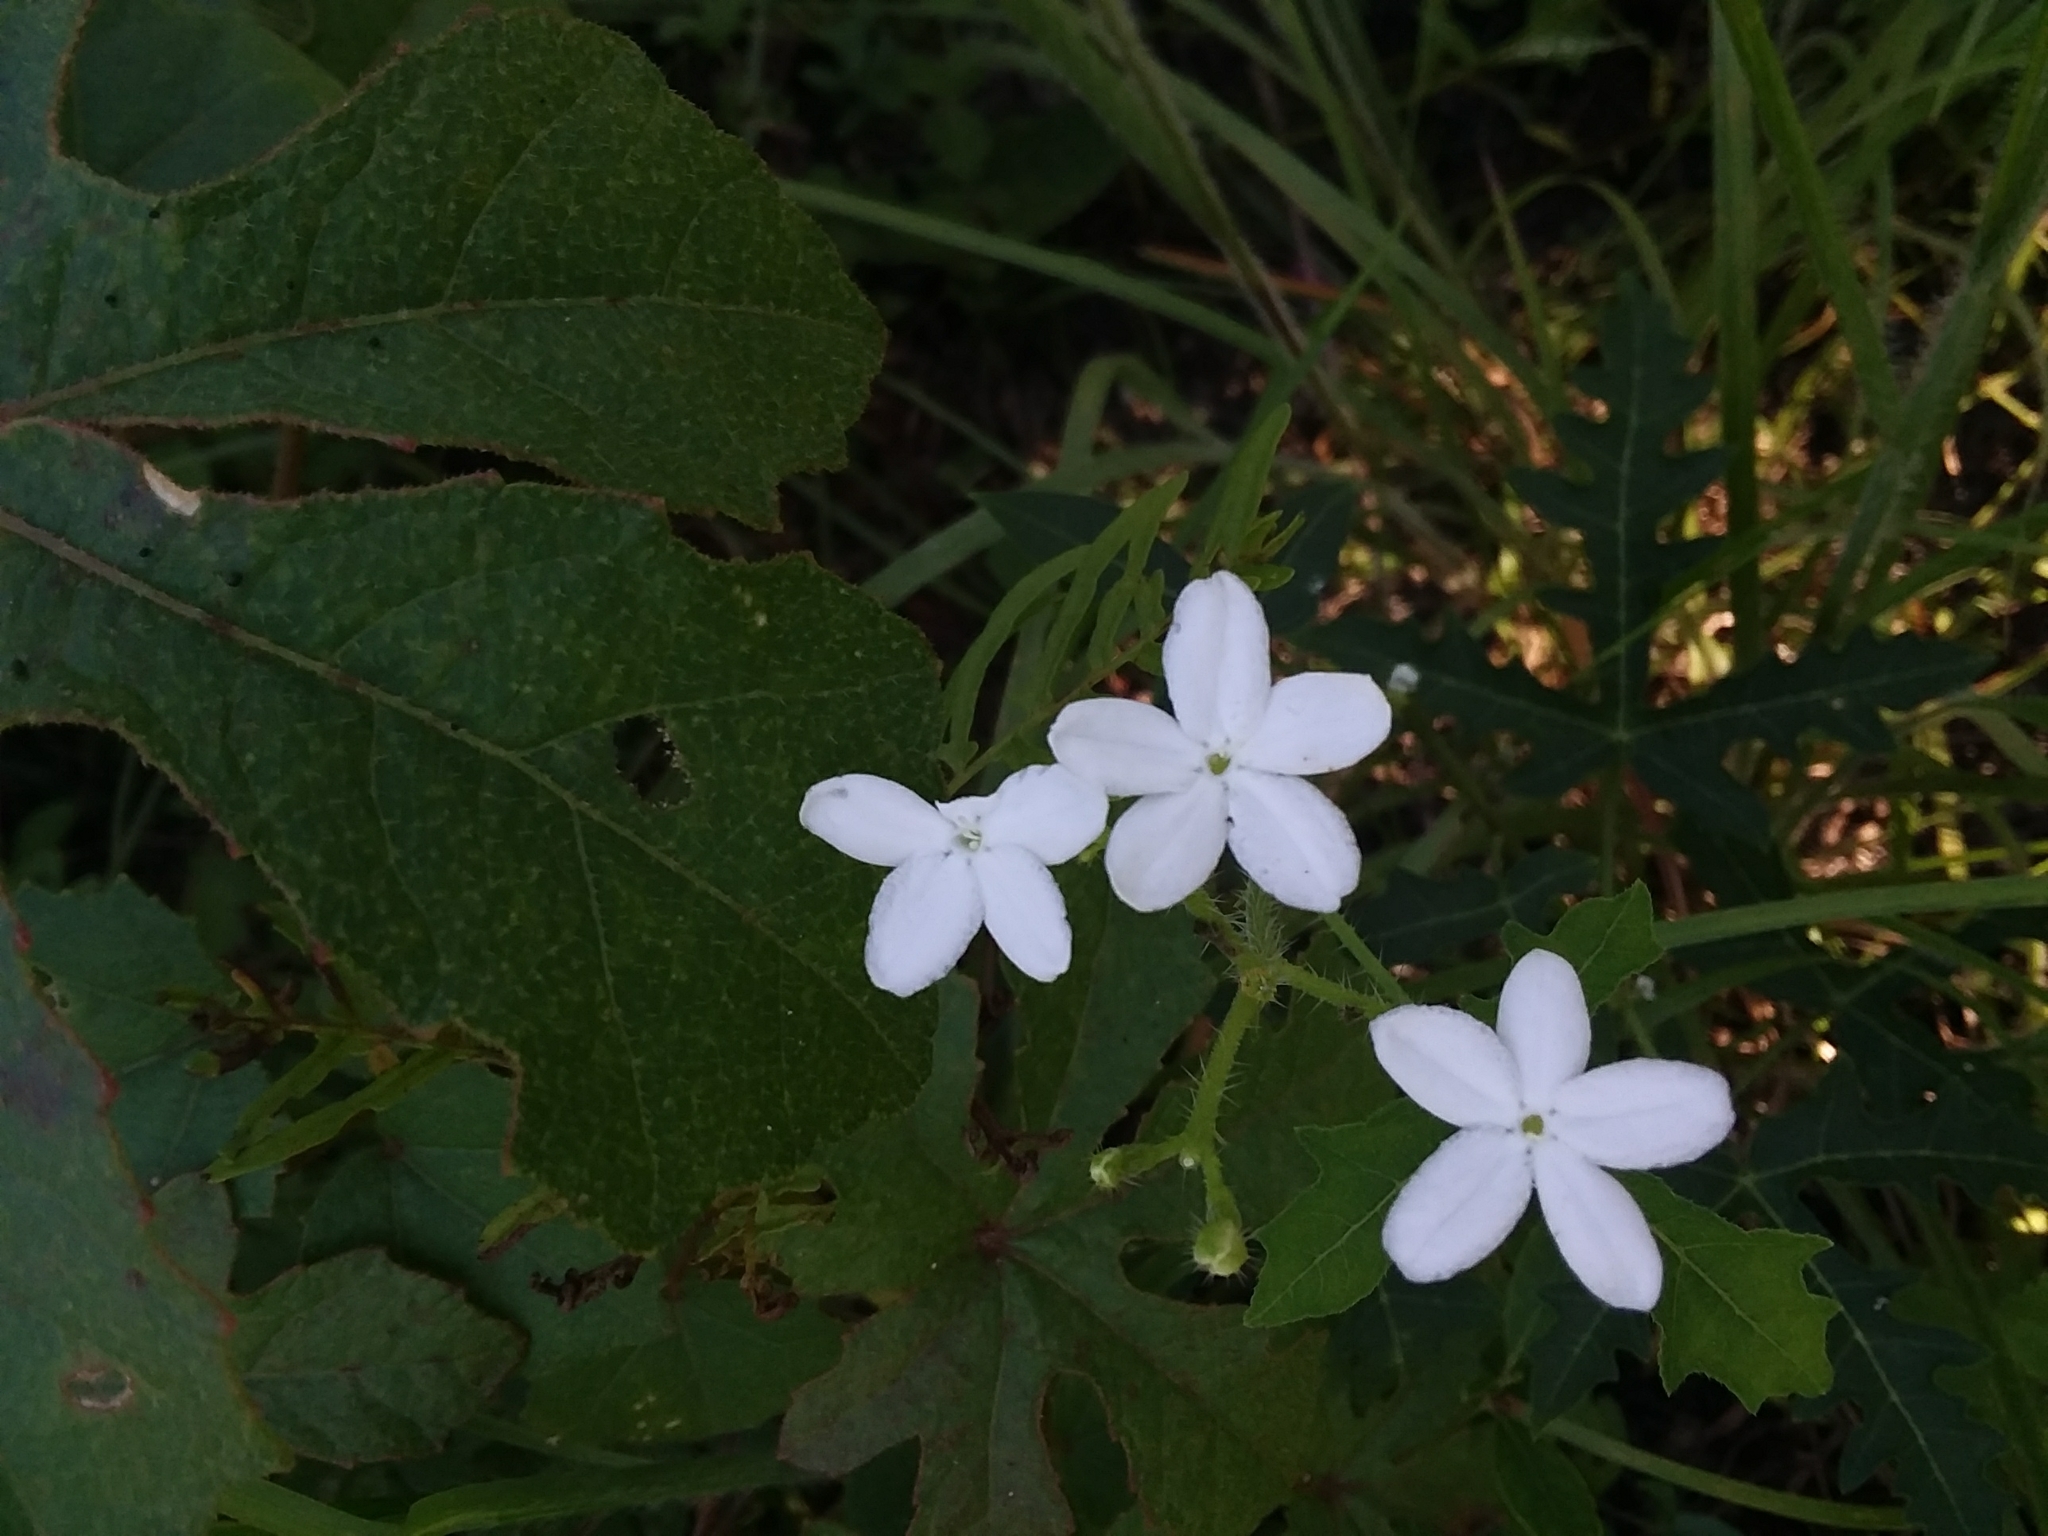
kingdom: Plantae
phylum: Tracheophyta
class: Magnoliopsida
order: Malpighiales
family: Euphorbiaceae
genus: Cnidoscolus
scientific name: Cnidoscolus stimulosus
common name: Bull-nettle
